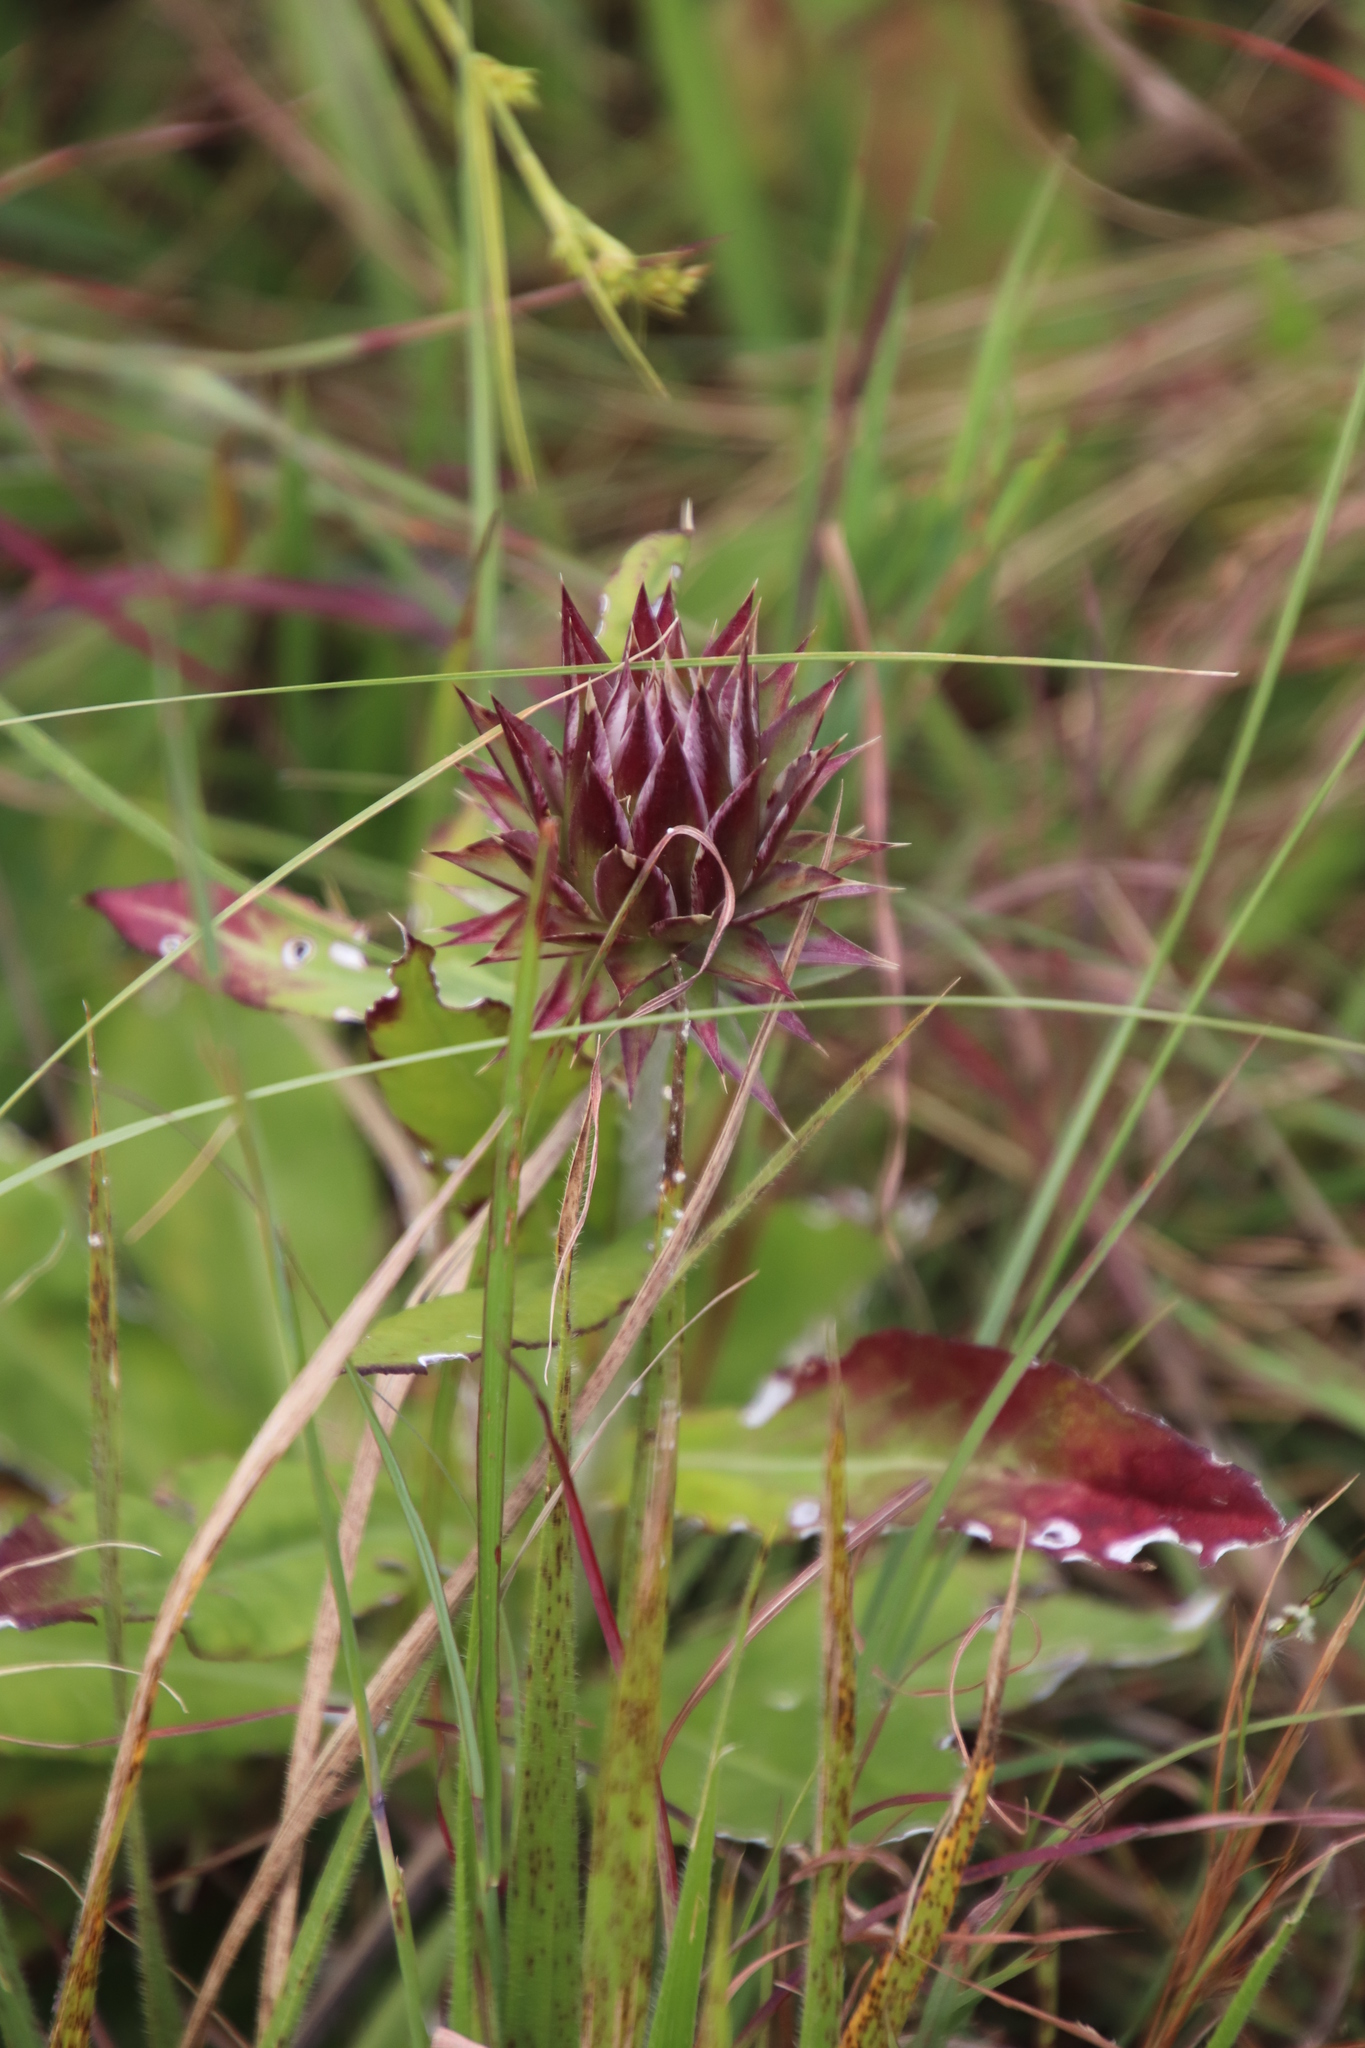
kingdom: Plantae
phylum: Tracheophyta
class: Magnoliopsida
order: Asterales
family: Asteraceae
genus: Macledium
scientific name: Macledium zeyheri
